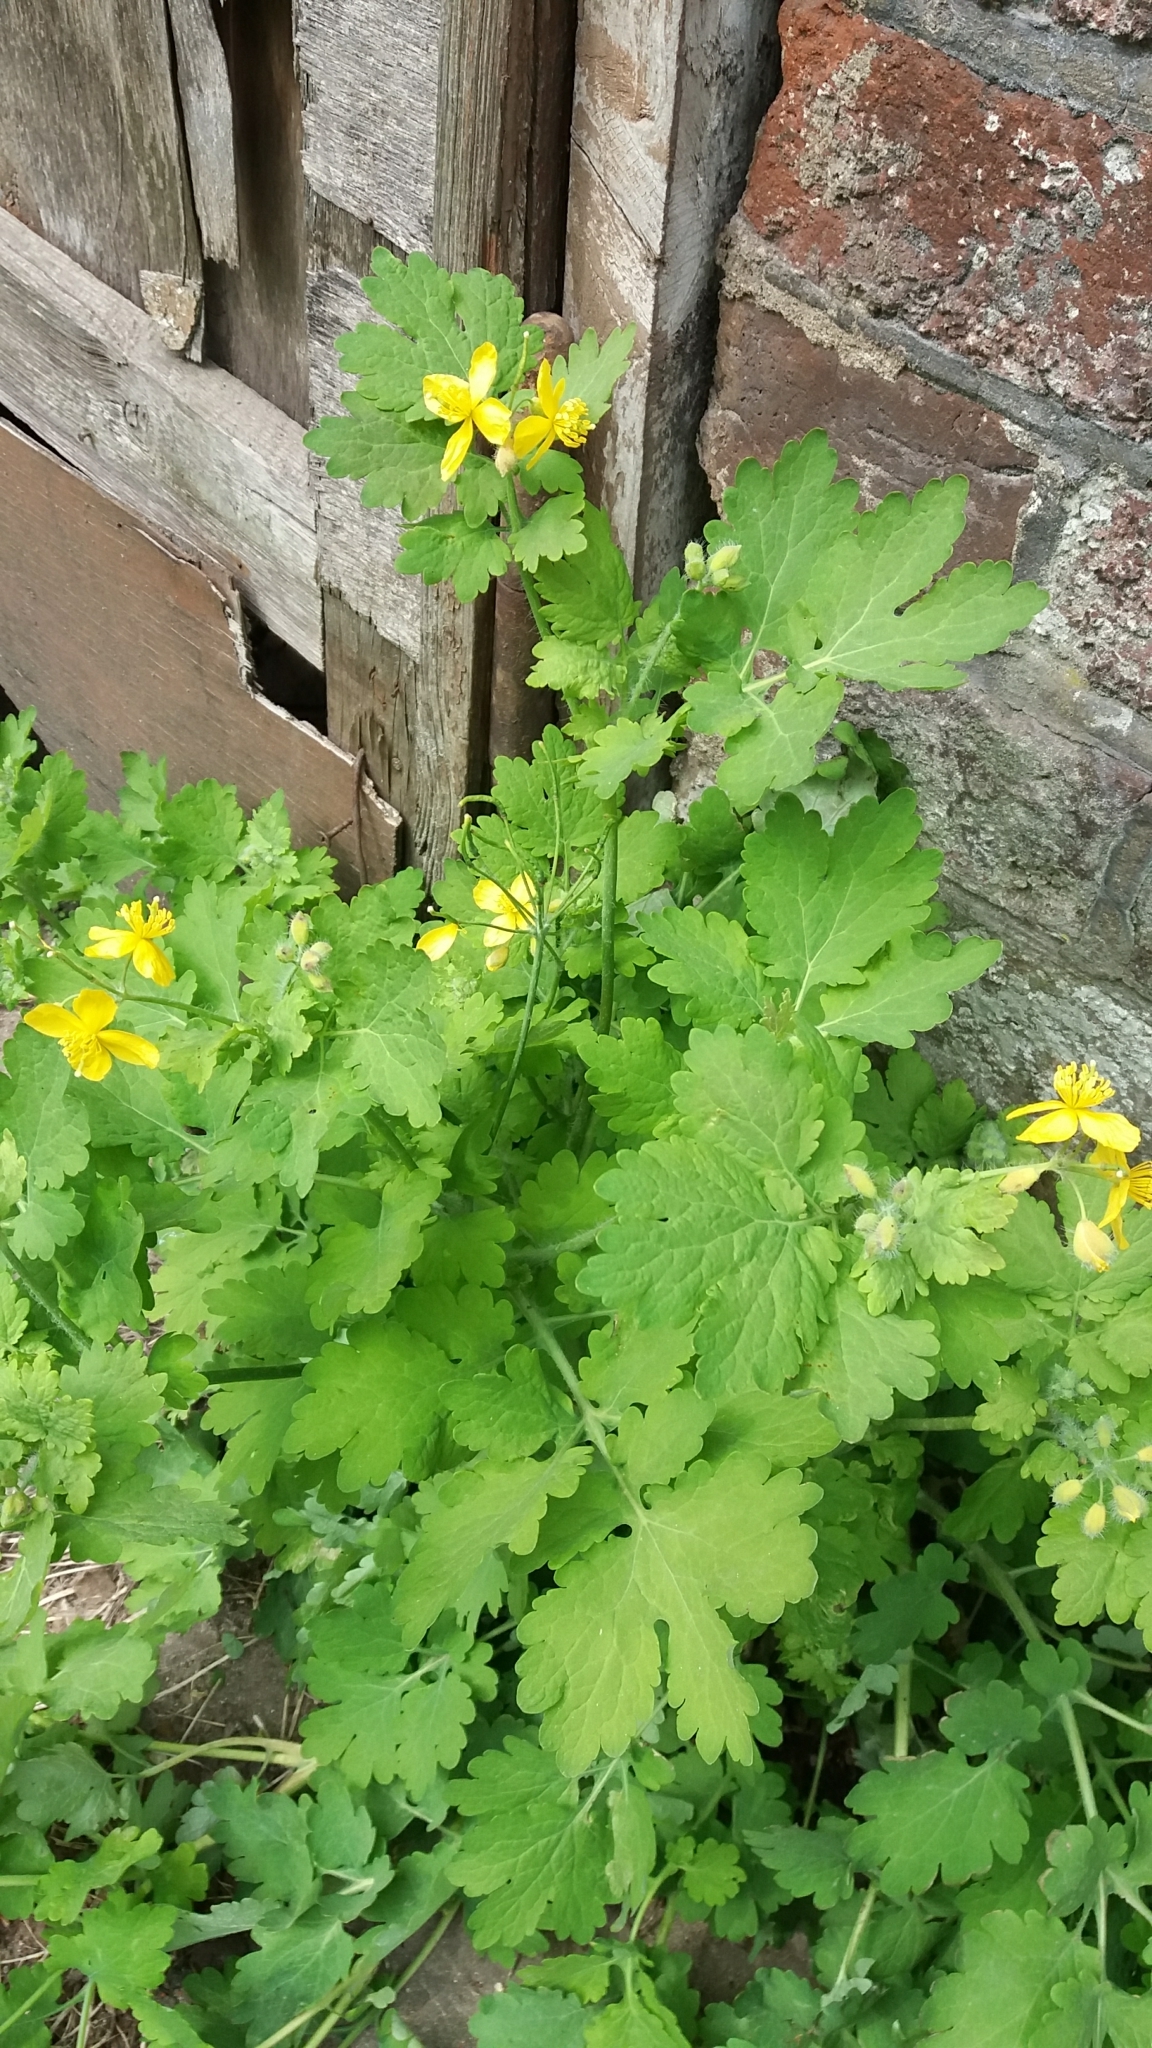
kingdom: Plantae
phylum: Tracheophyta
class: Magnoliopsida
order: Ranunculales
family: Papaveraceae
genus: Chelidonium
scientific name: Chelidonium majus
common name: Greater celandine
